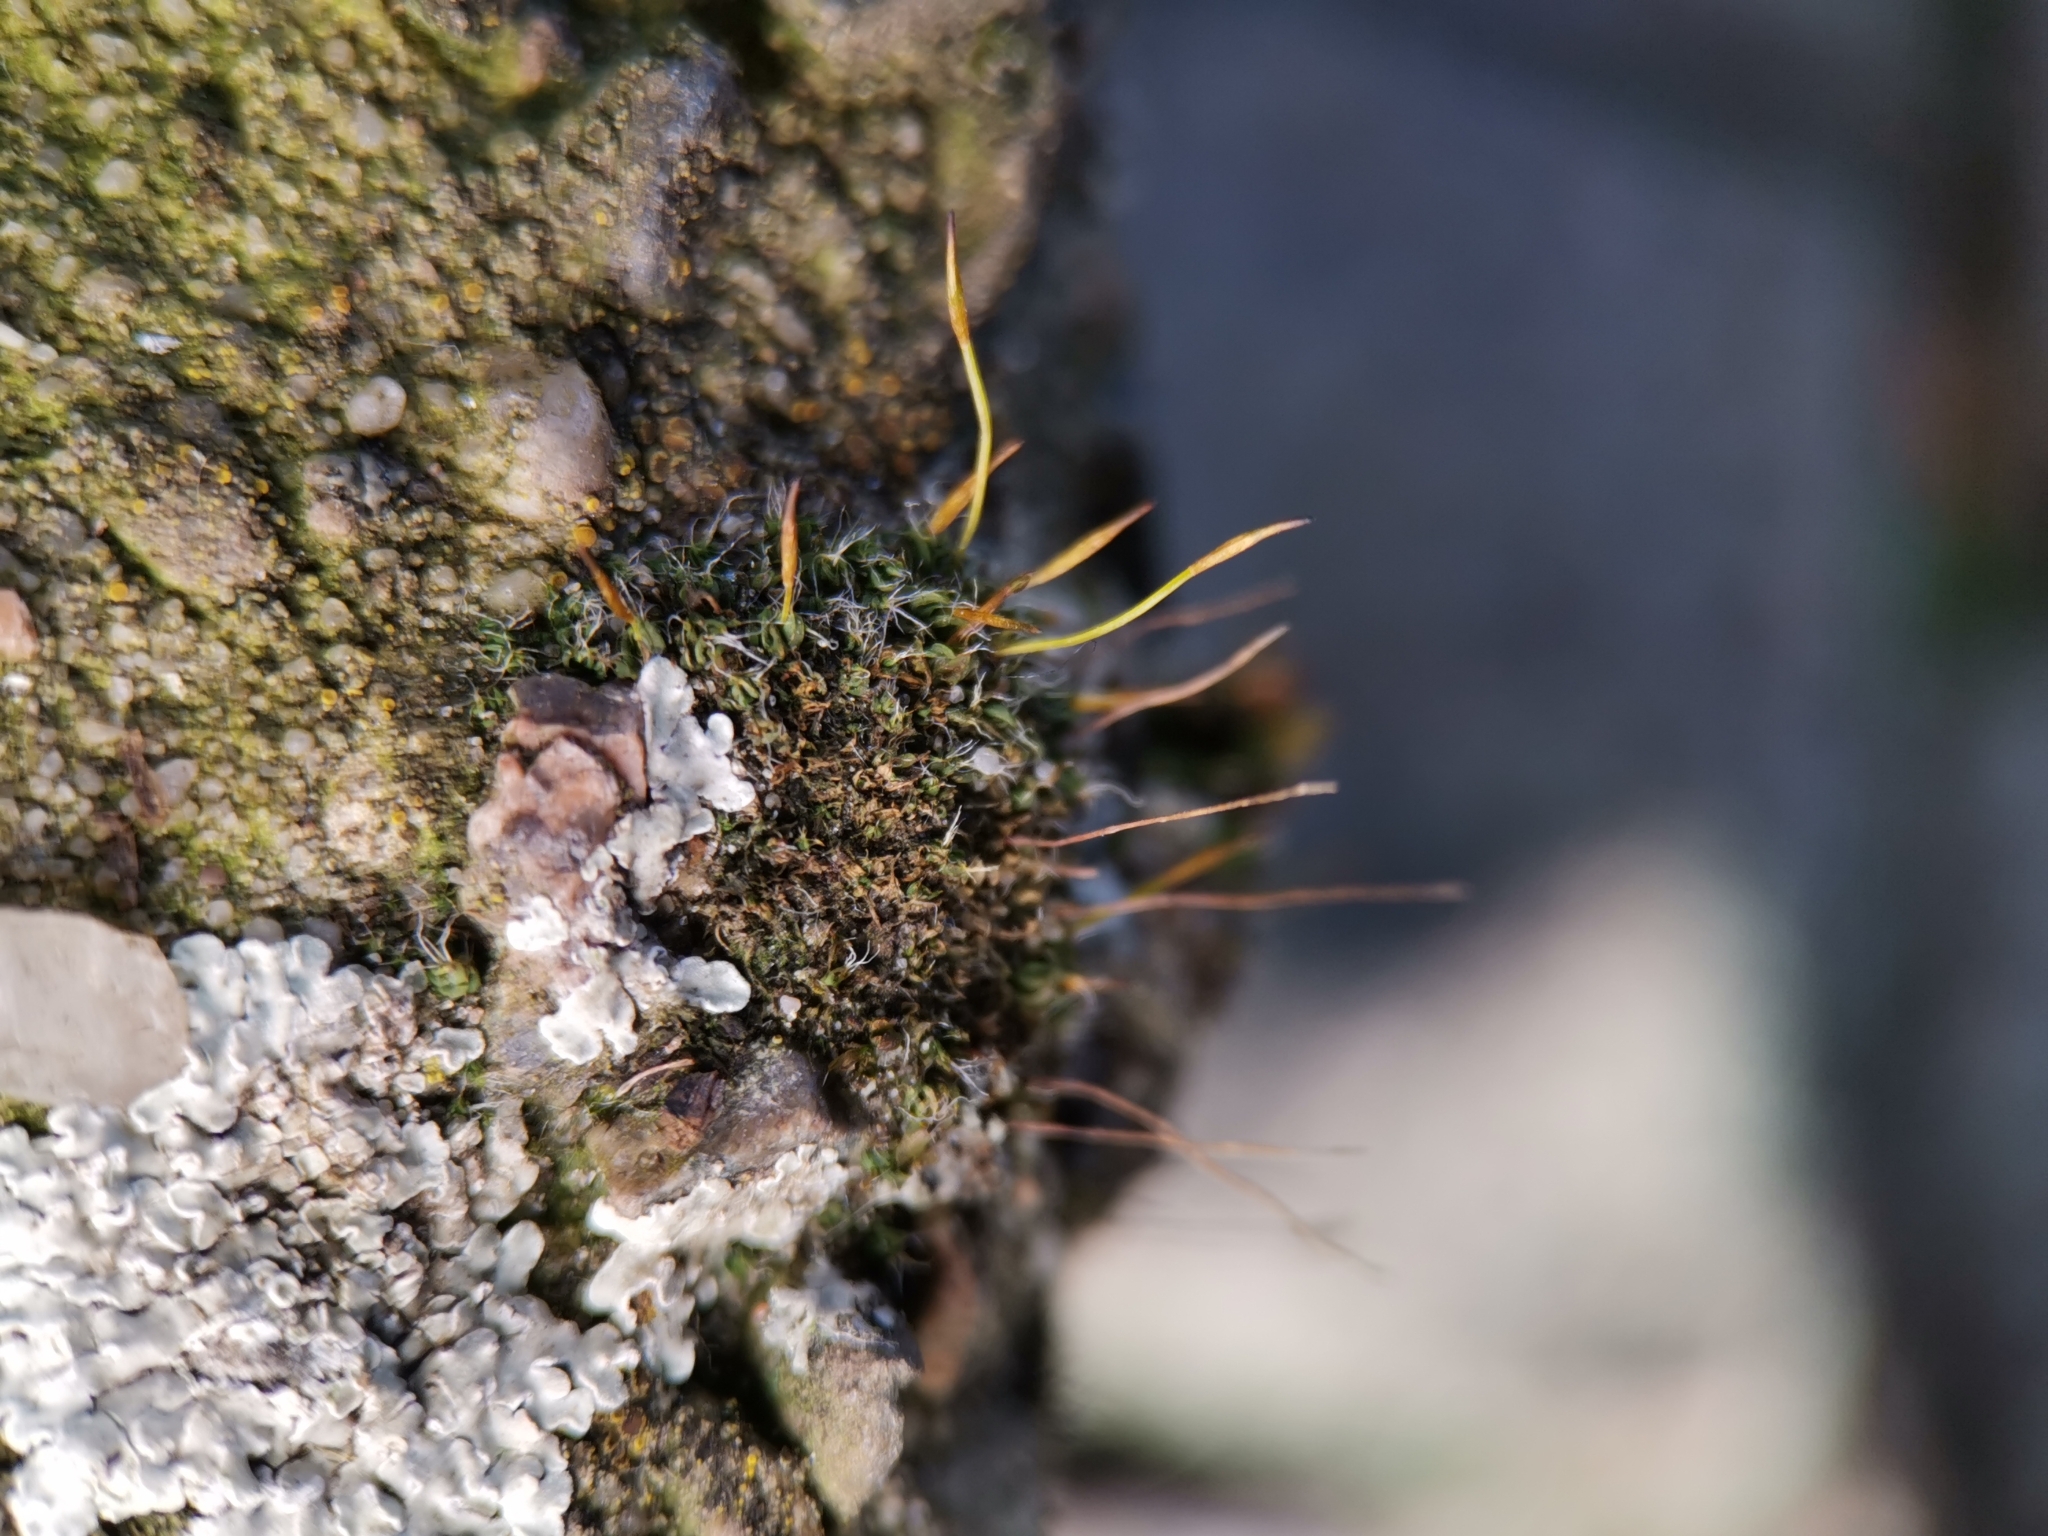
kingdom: Plantae
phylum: Bryophyta
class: Bryopsida
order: Pottiales
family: Pottiaceae
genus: Tortula
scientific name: Tortula muralis
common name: Wall screw-moss
